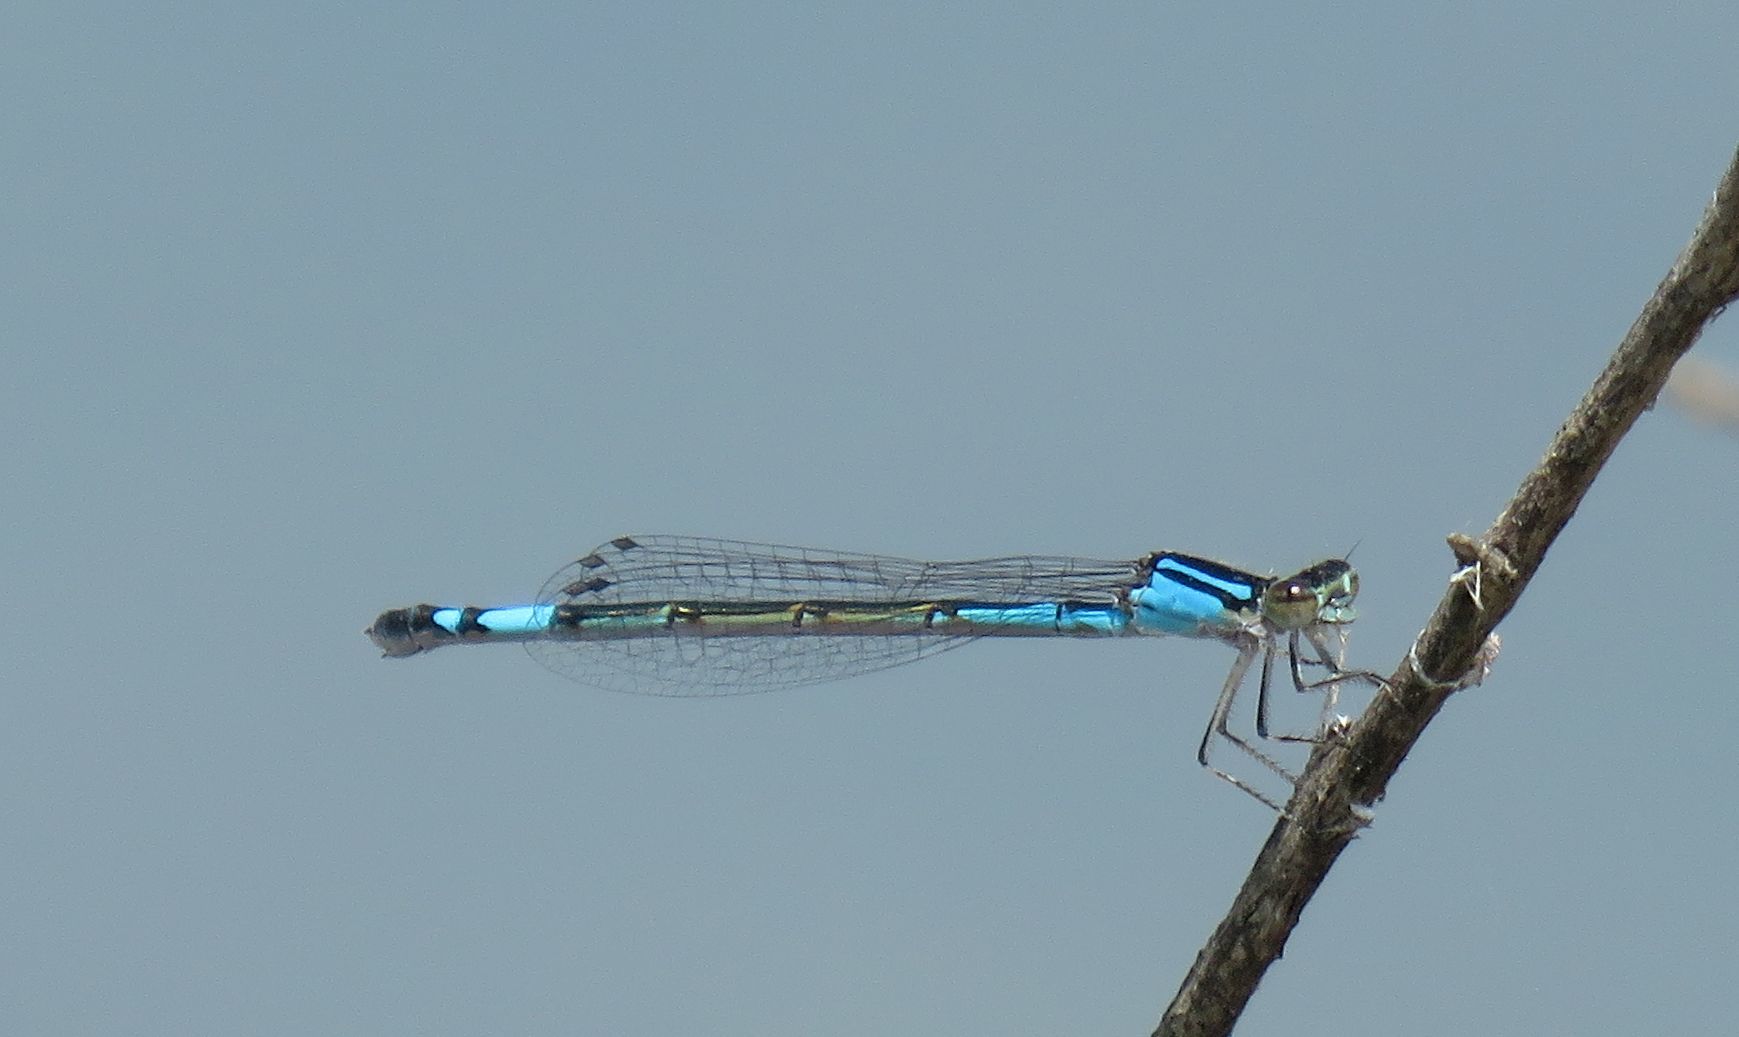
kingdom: Animalia
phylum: Arthropoda
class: Insecta
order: Odonata
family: Coenagrionidae
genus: Enallagma
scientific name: Enallagma aspersum
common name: Azure bluet
